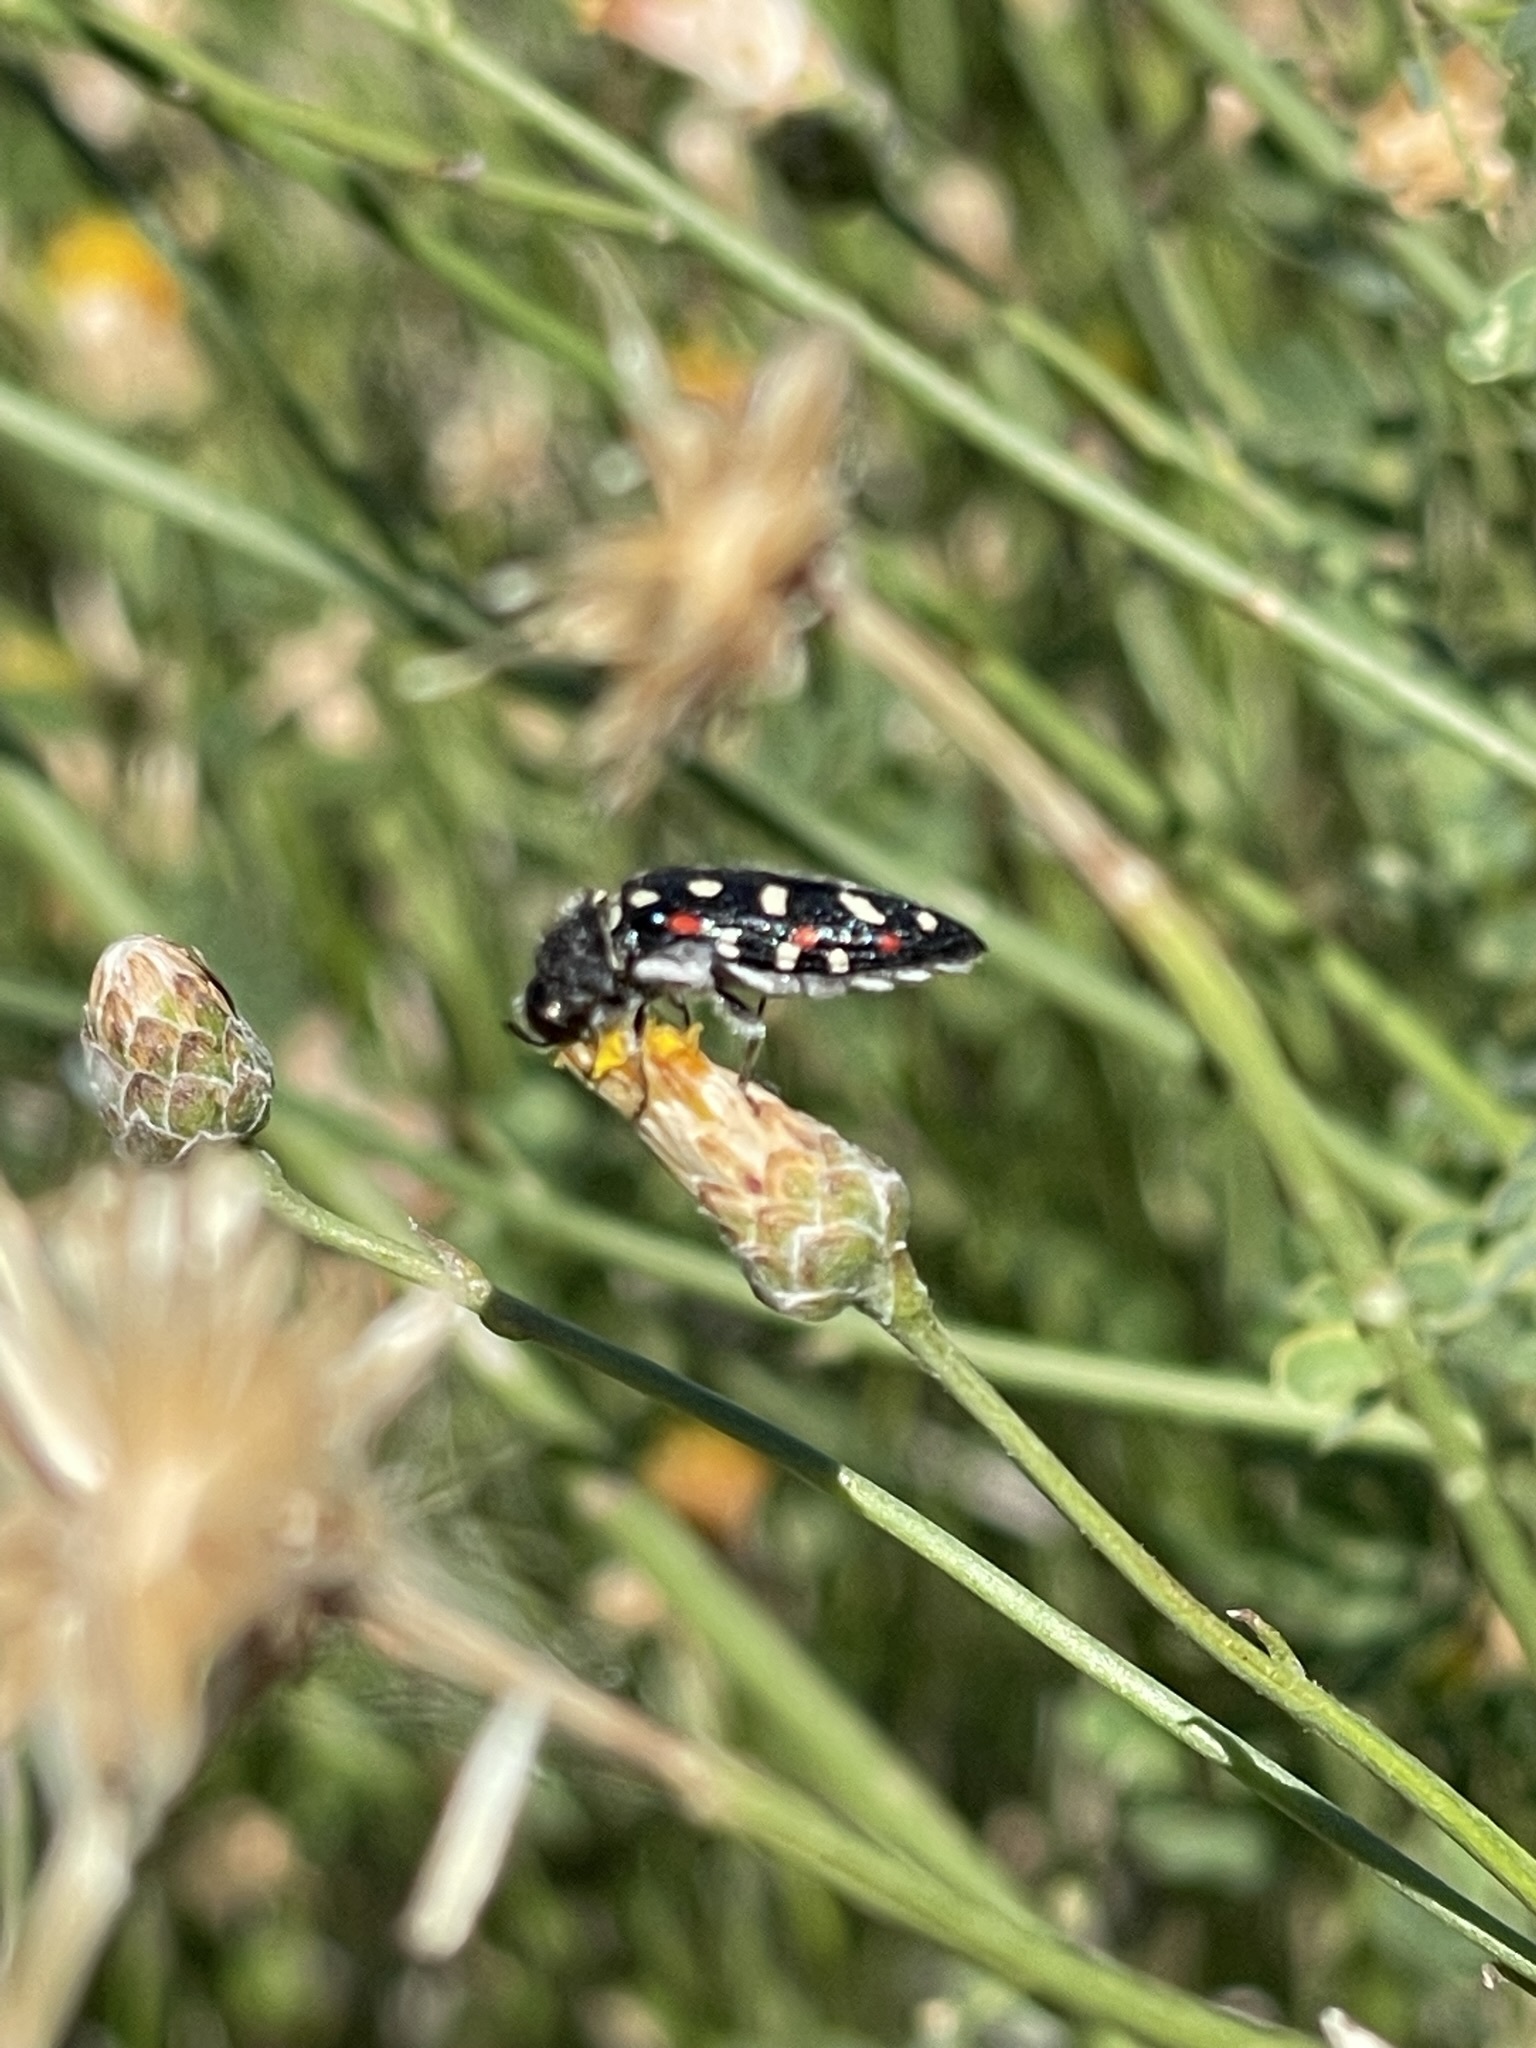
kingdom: Animalia
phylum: Arthropoda
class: Insecta
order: Coleoptera
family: Buprestidae
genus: Acmaeodera
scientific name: Acmaeodera gibbula
